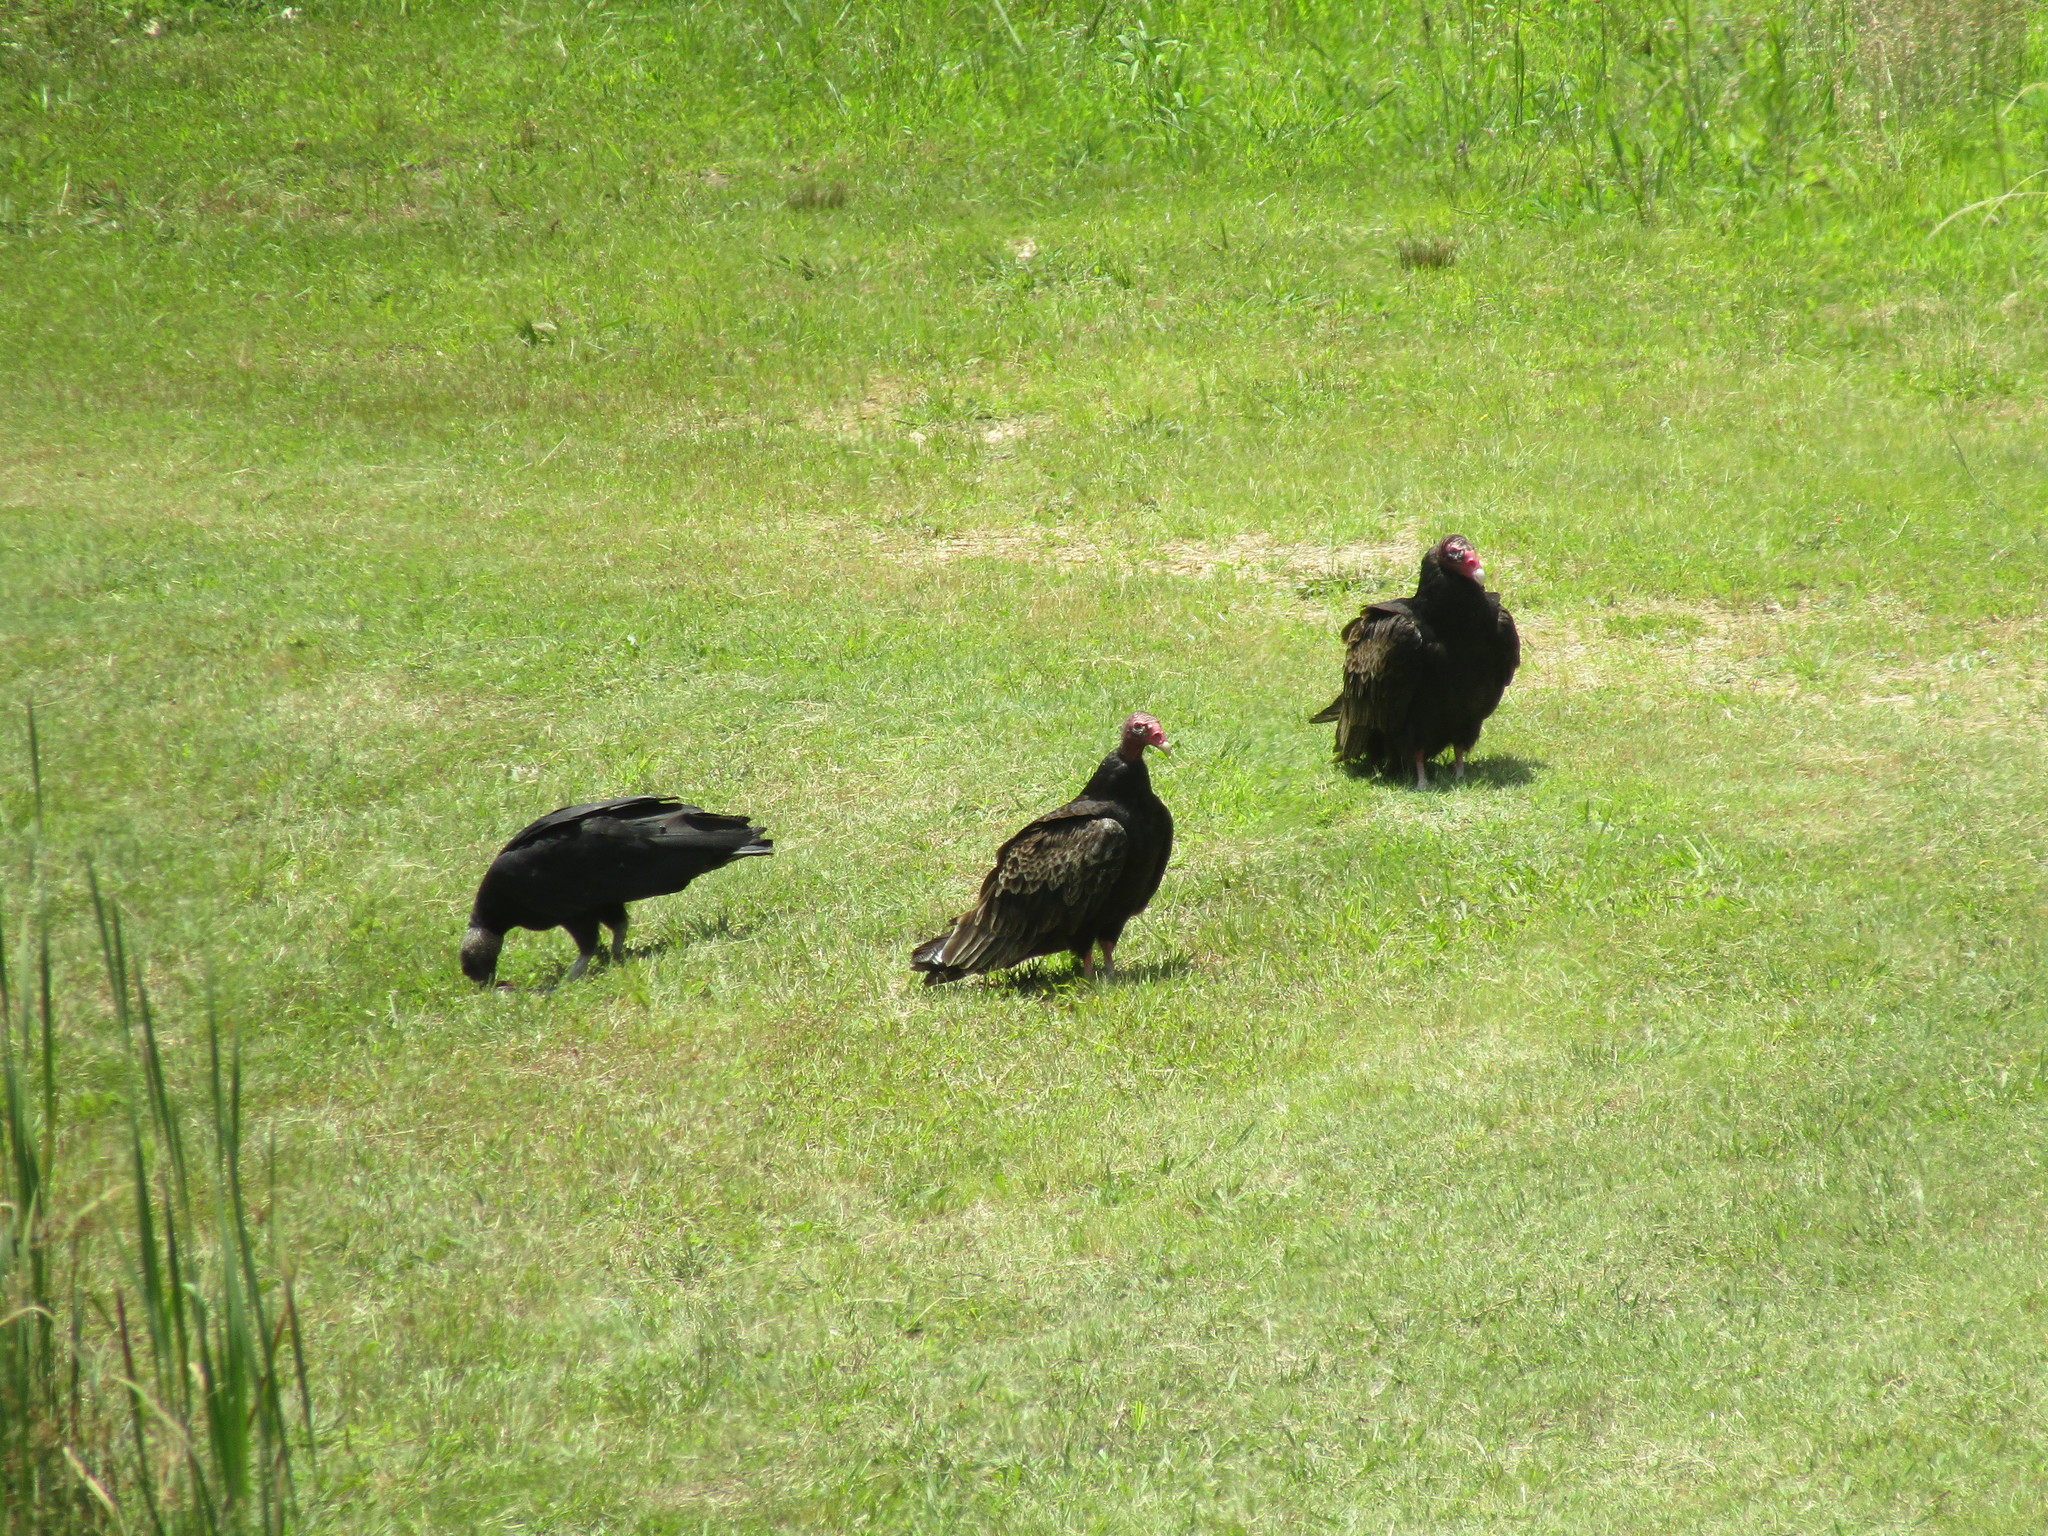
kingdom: Animalia
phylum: Chordata
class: Aves
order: Accipitriformes
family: Cathartidae
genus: Cathartes
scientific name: Cathartes aura
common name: Turkey vulture
